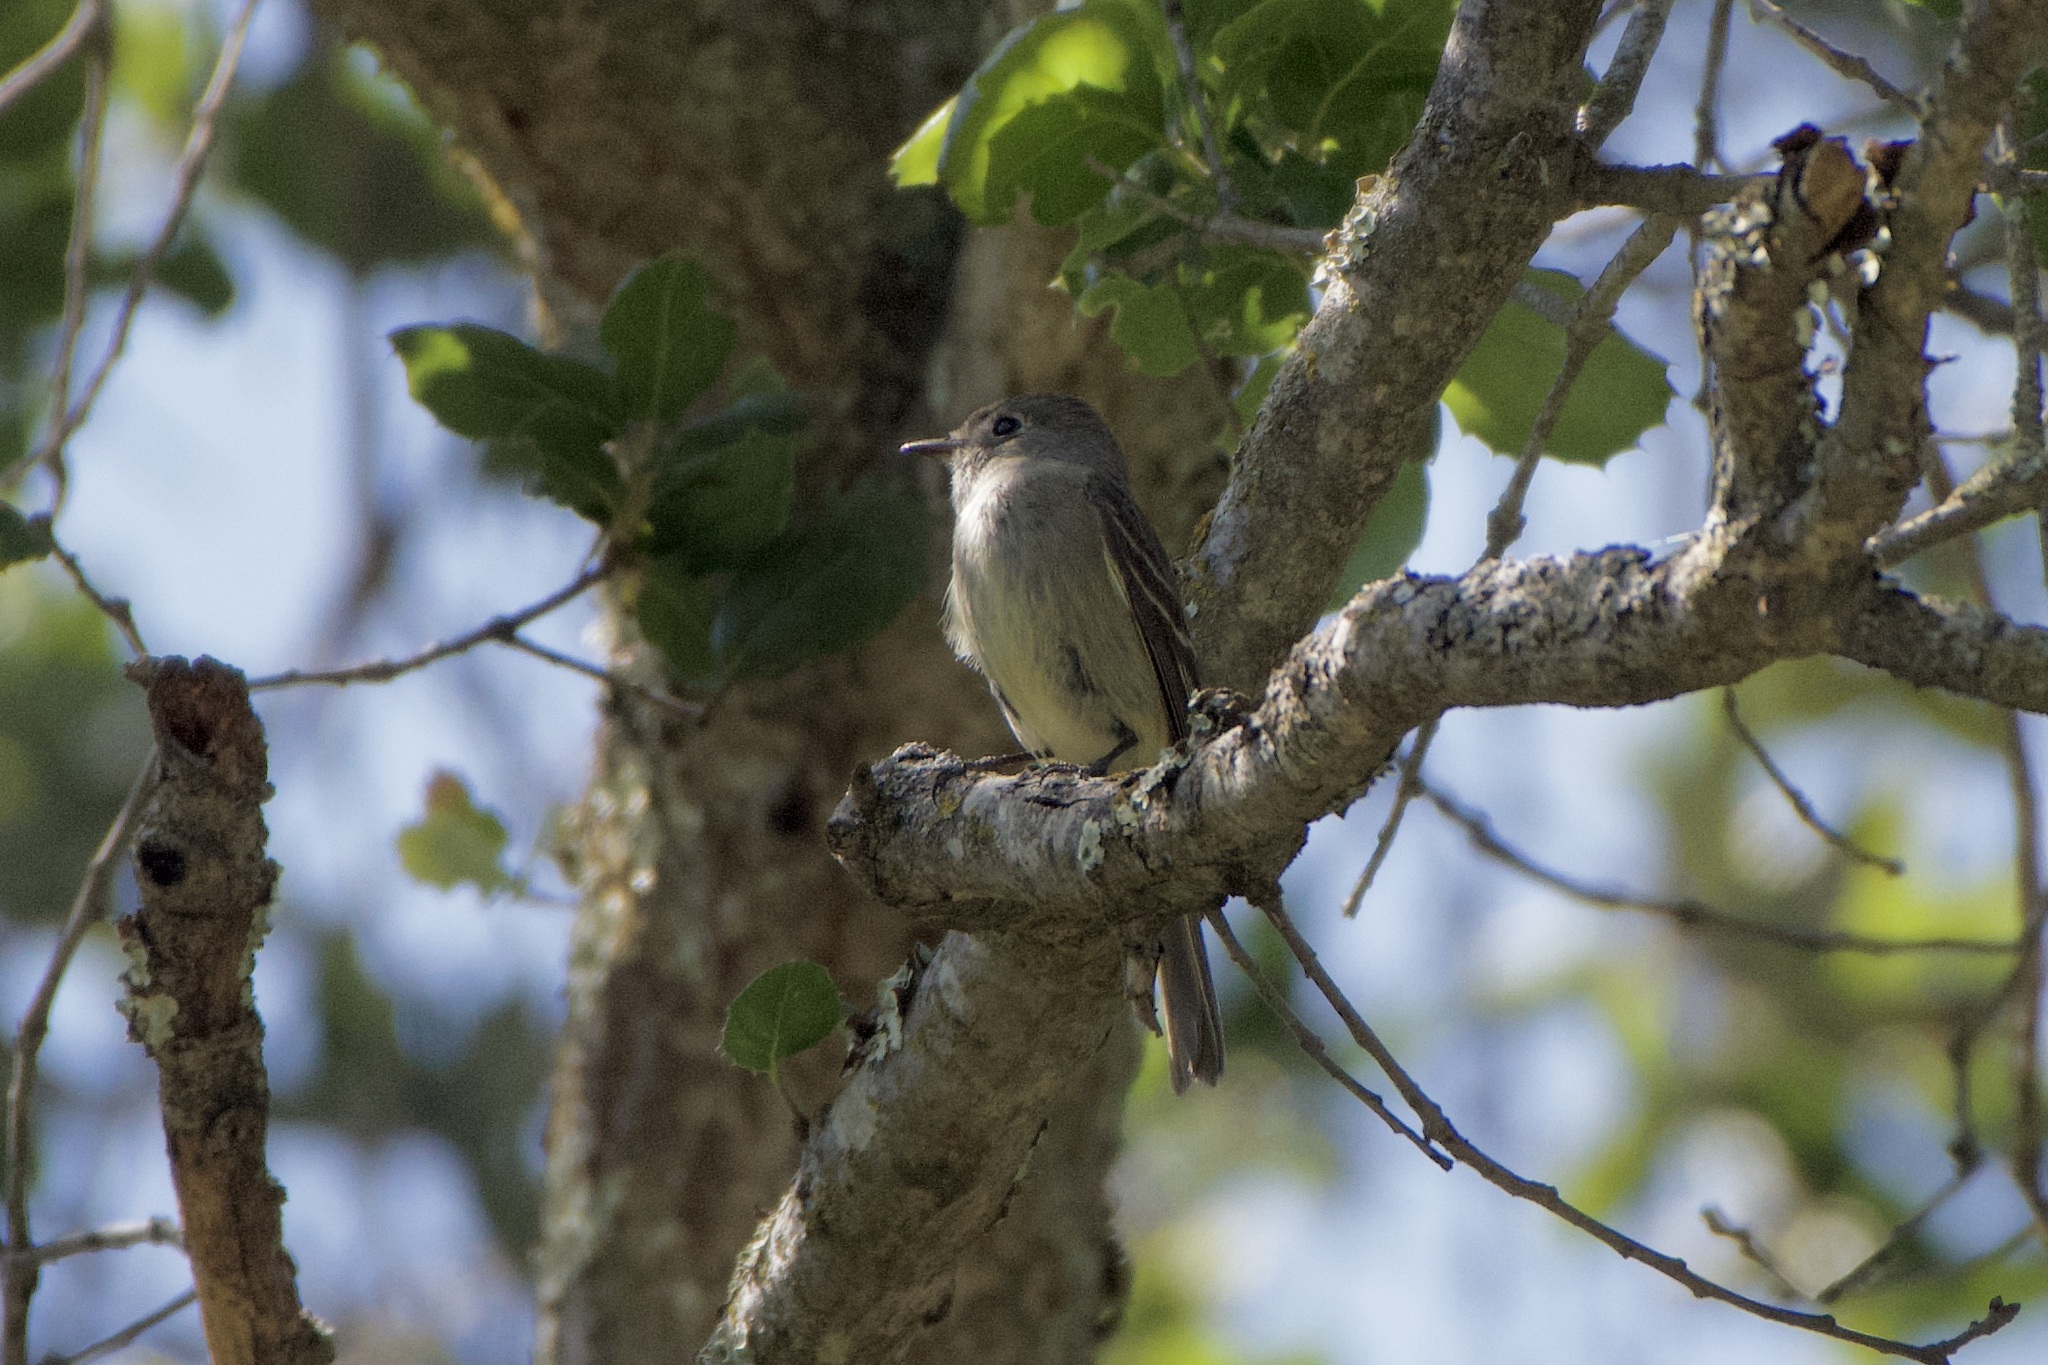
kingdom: Animalia
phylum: Chordata
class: Aves
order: Passeriformes
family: Tyrannidae
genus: Empidonax
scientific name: Empidonax hammondii
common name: Hammond's flycatcher
